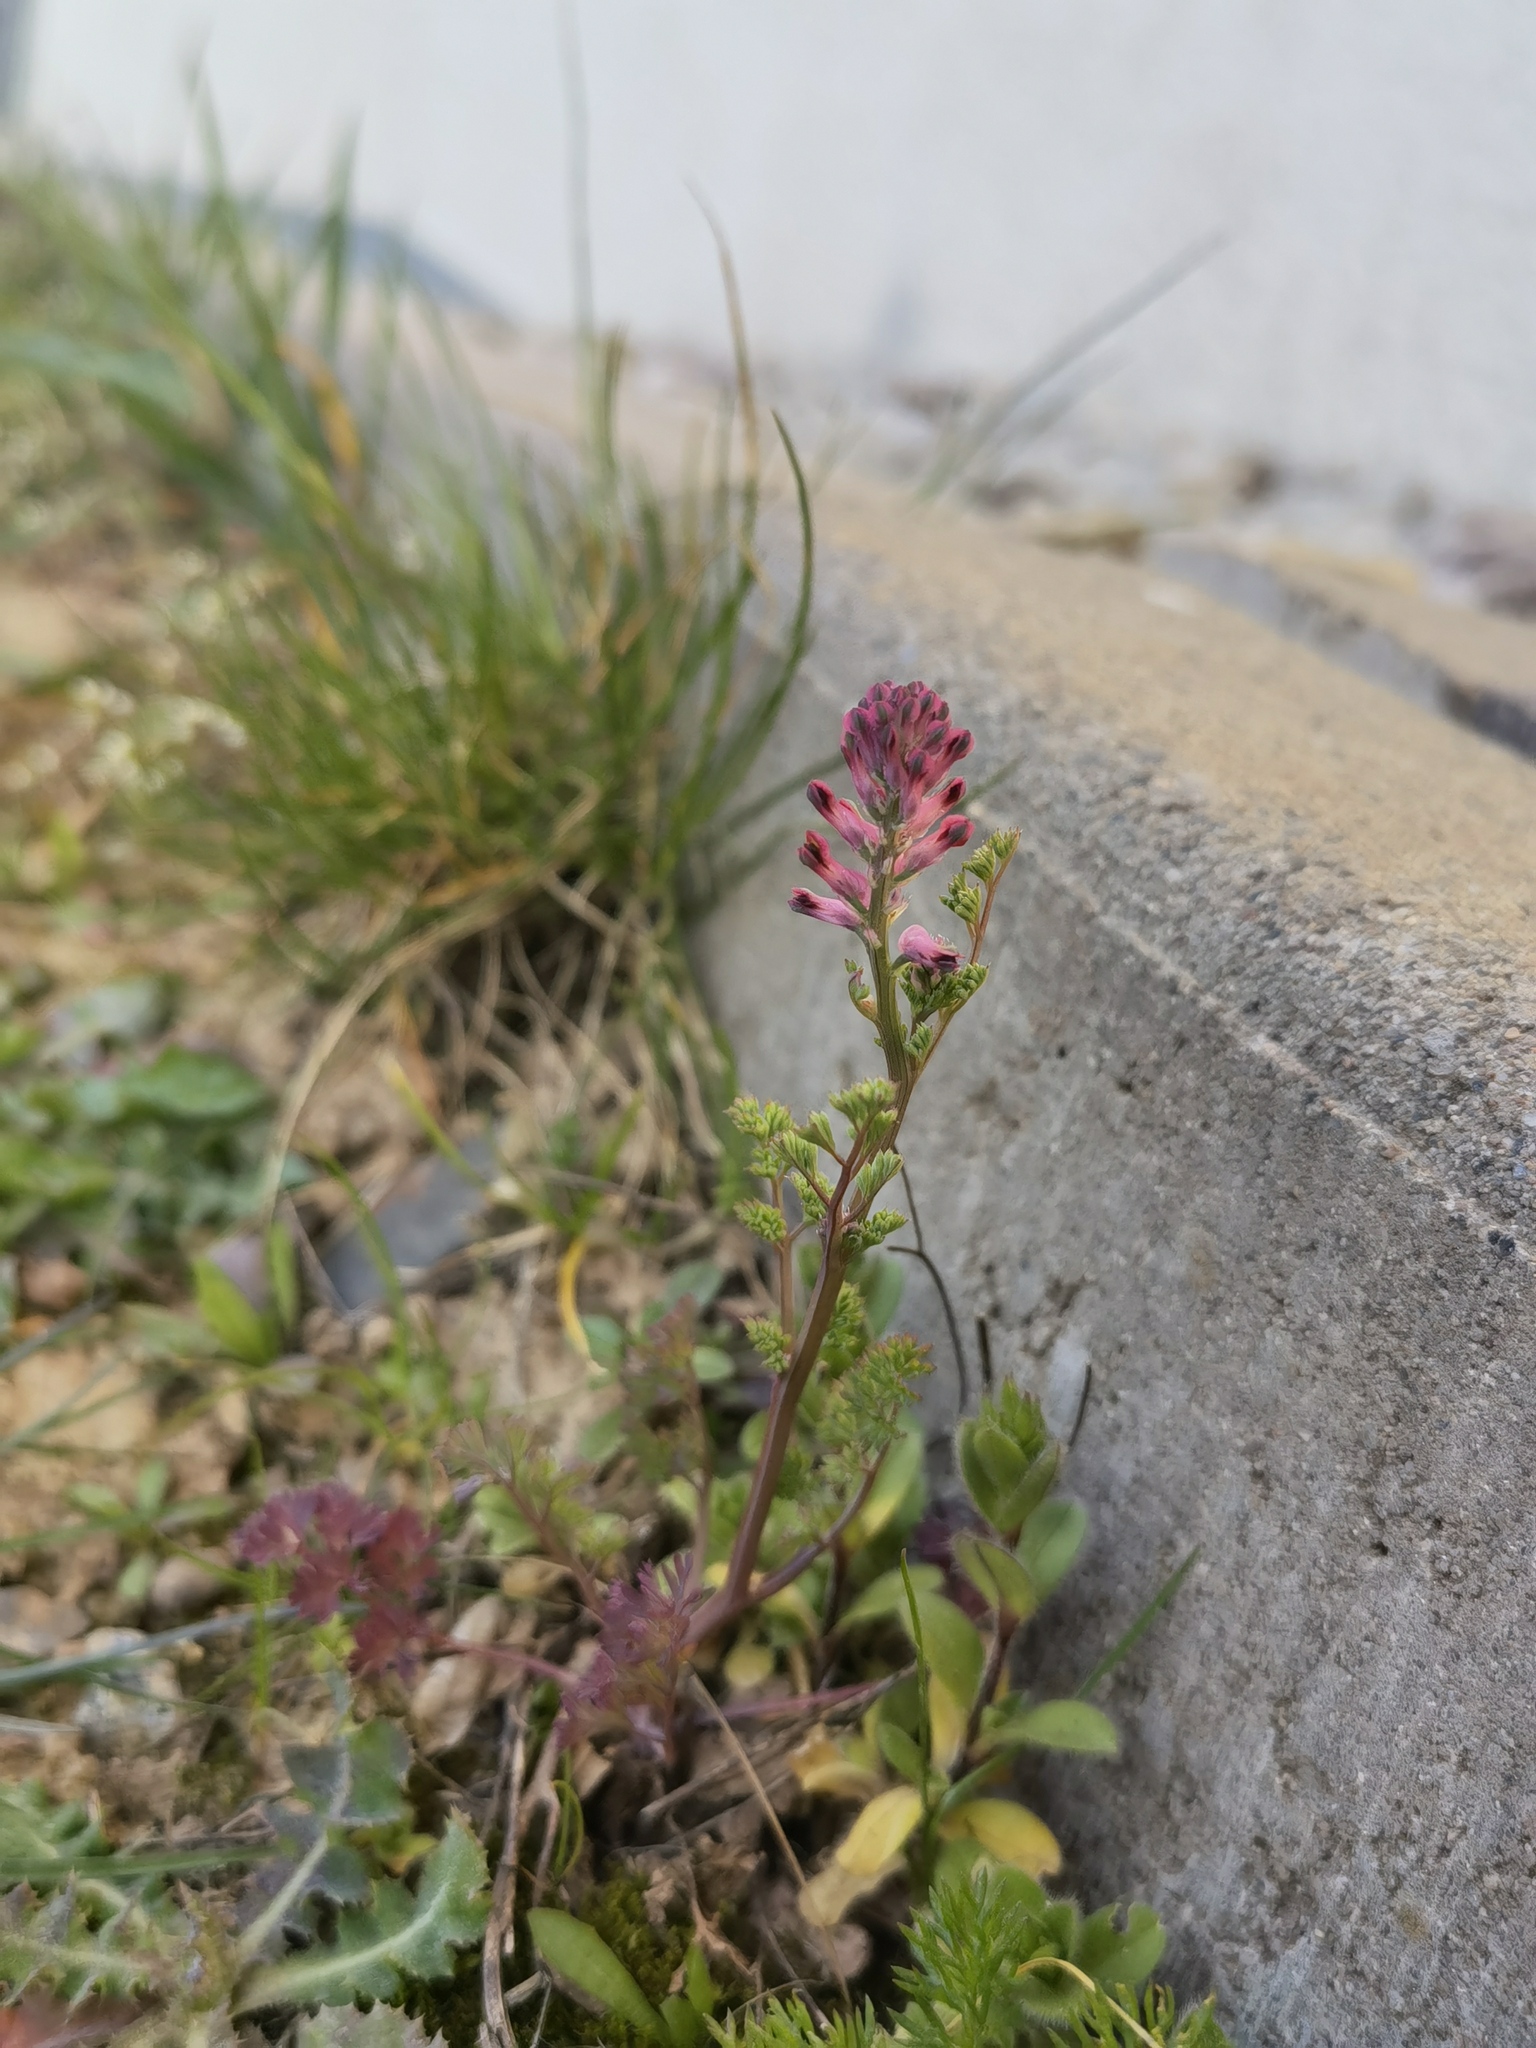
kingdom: Plantae
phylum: Tracheophyta
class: Magnoliopsida
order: Ranunculales
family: Papaveraceae
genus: Fumaria
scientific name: Fumaria officinalis
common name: Common fumitory
